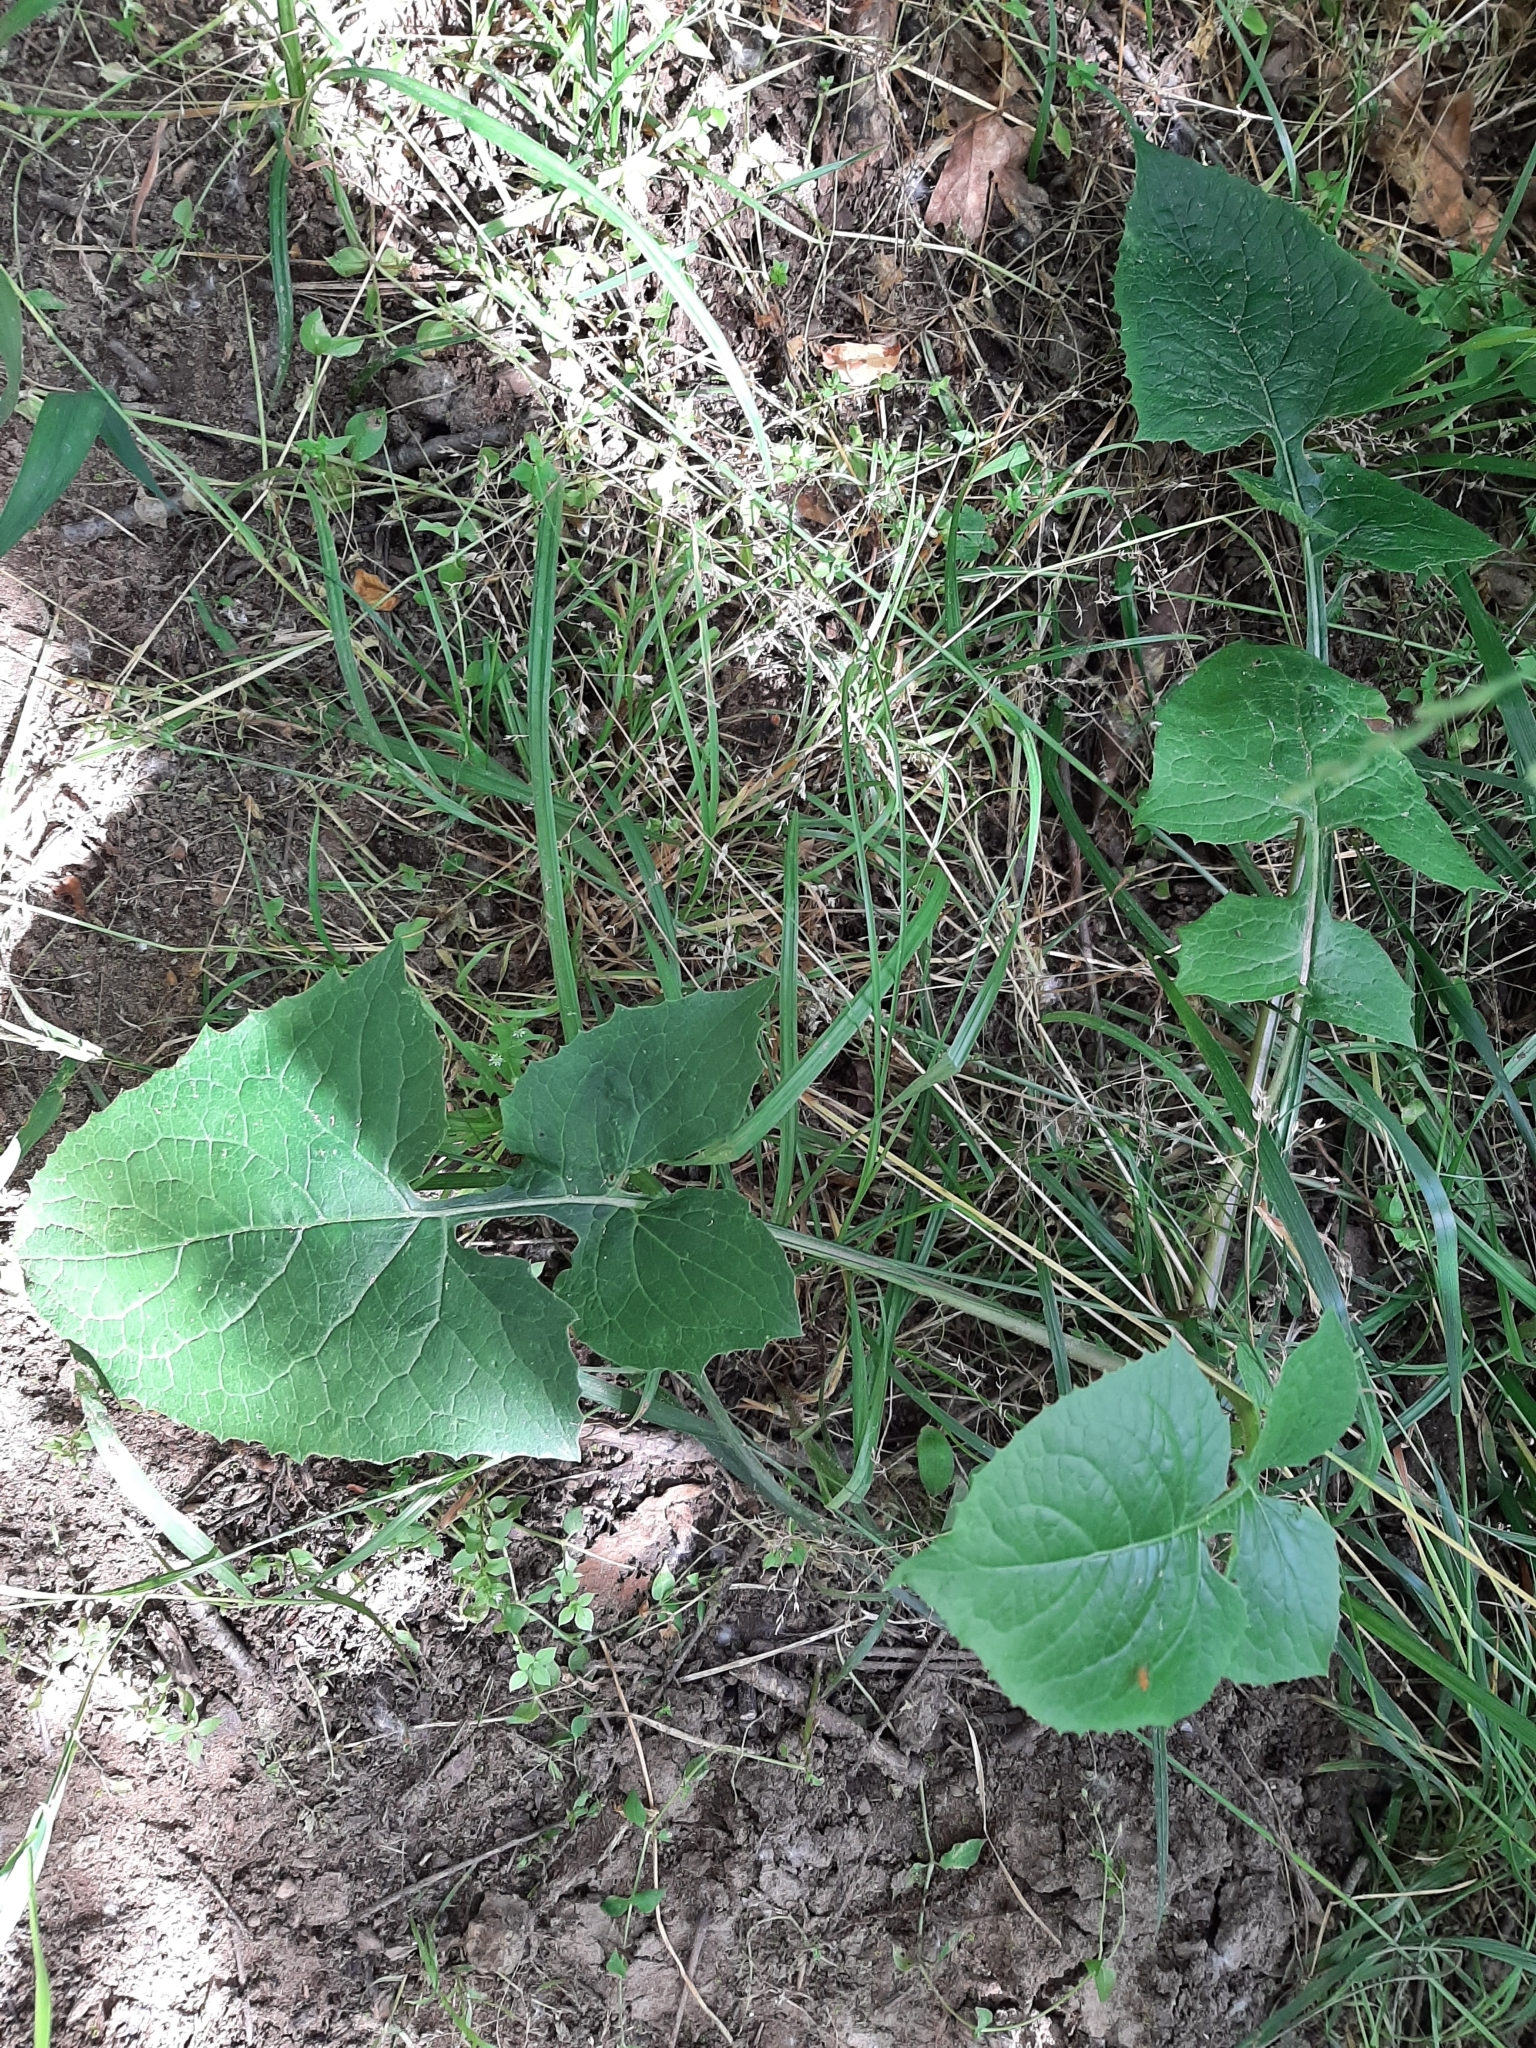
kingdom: Plantae
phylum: Tracheophyta
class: Magnoliopsida
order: Asterales
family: Asteraceae
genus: Lactuca
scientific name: Lactuca floridana
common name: Woodland lettuce
